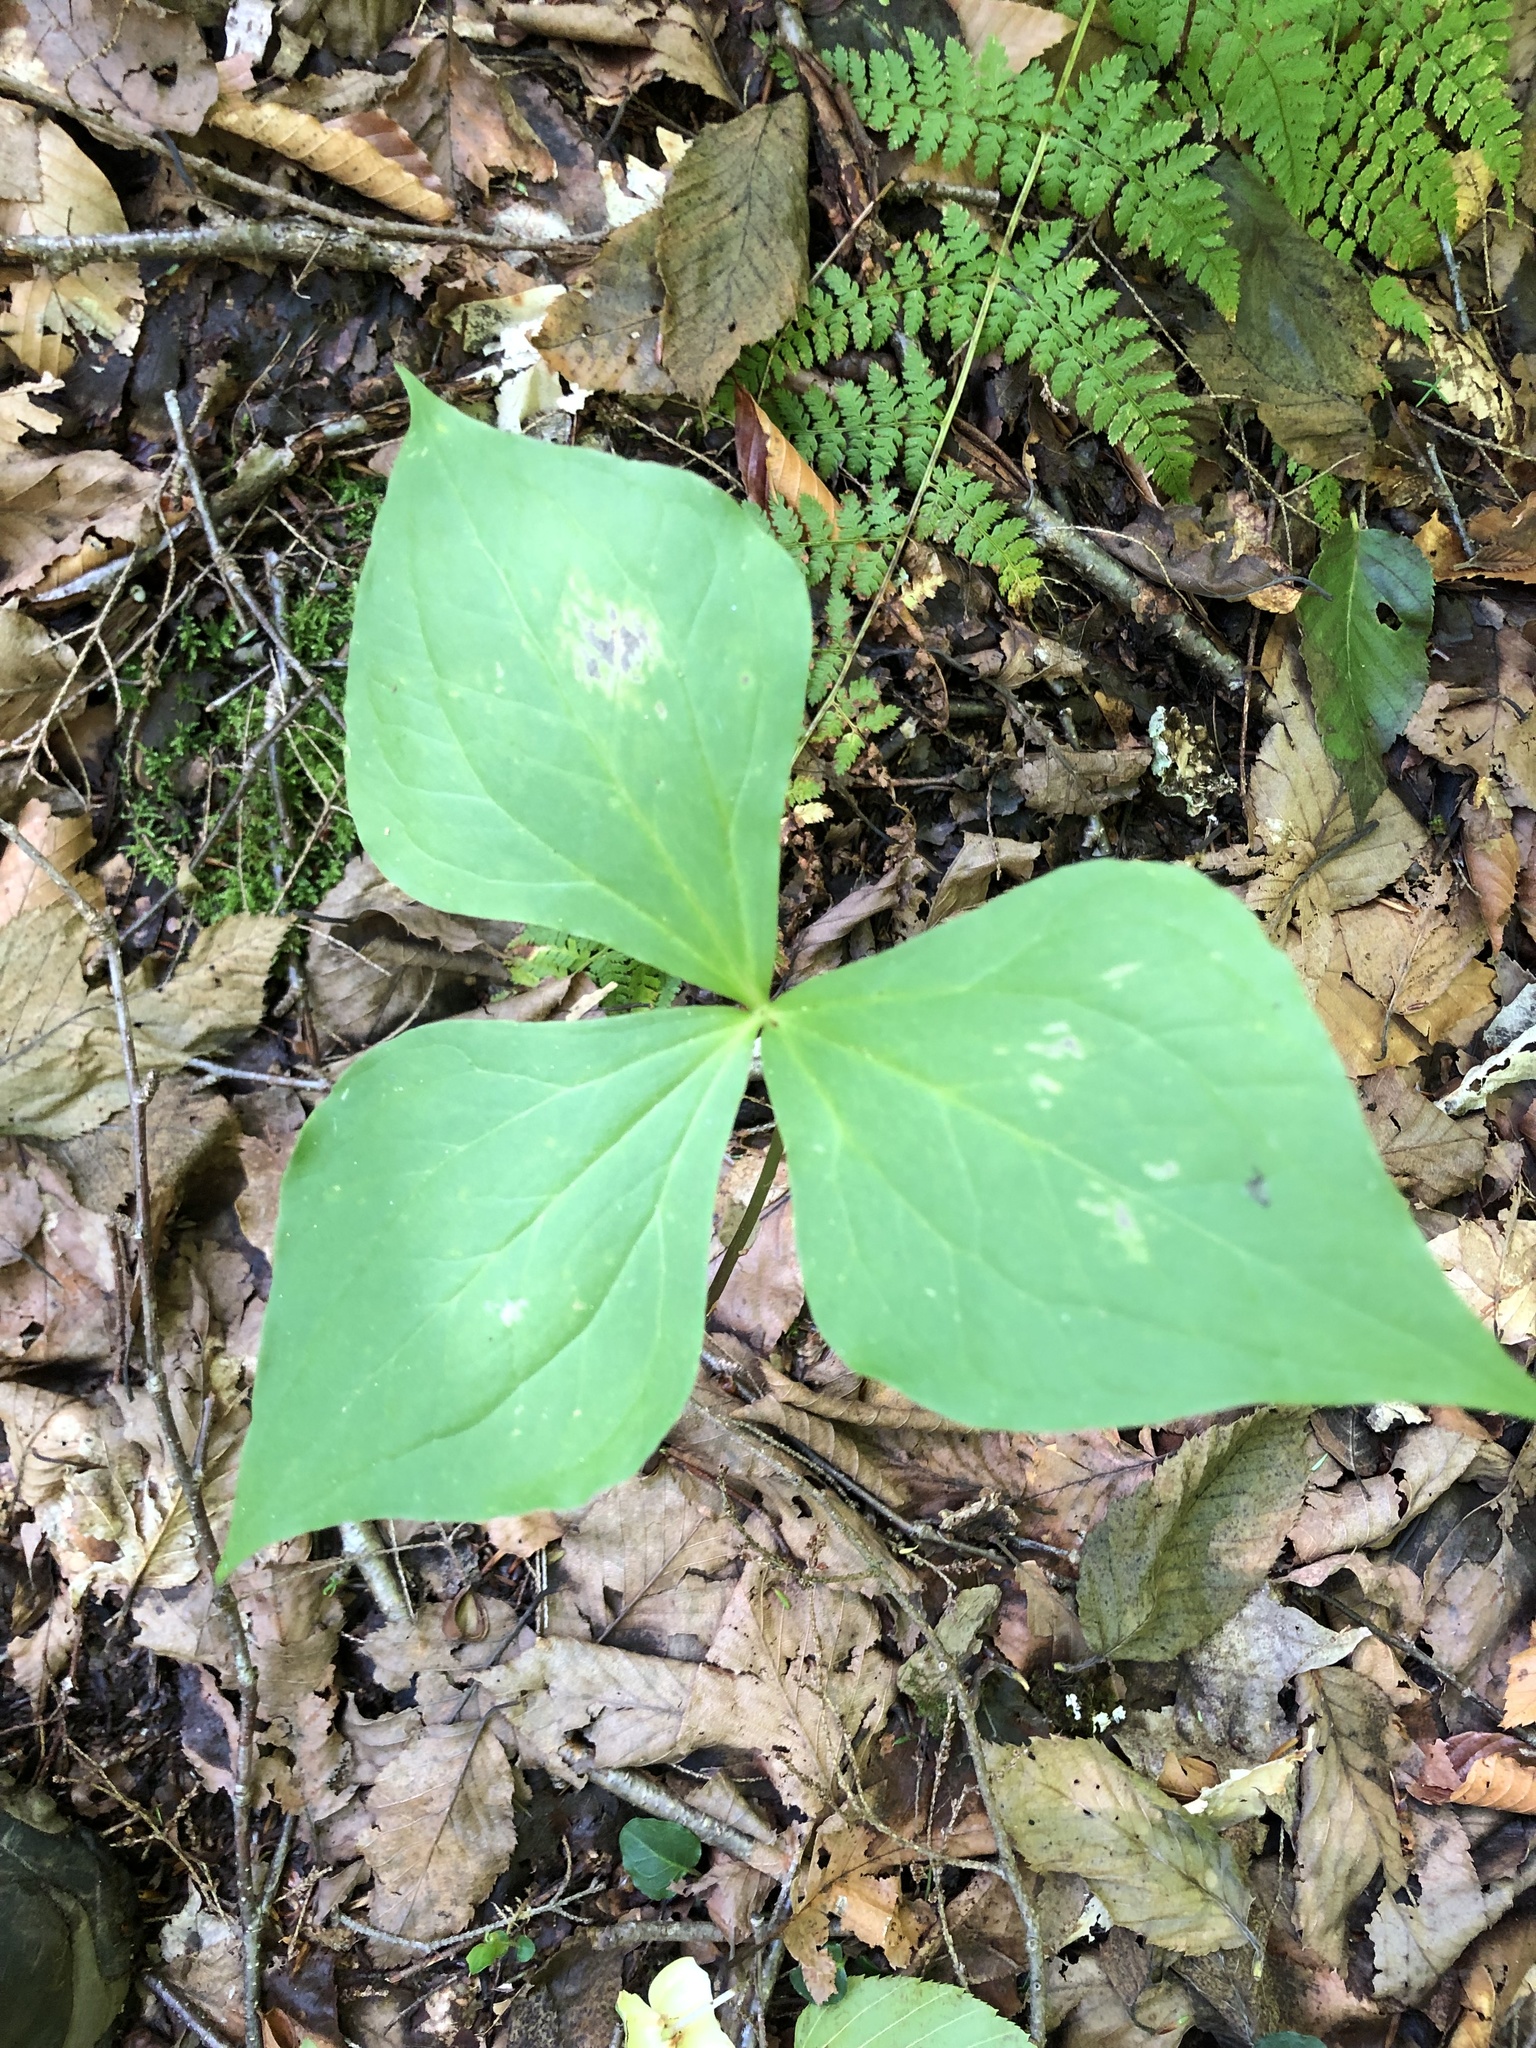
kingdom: Plantae
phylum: Tracheophyta
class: Liliopsida
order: Liliales
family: Melanthiaceae
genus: Trillium
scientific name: Trillium erectum
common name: Purple trillium
